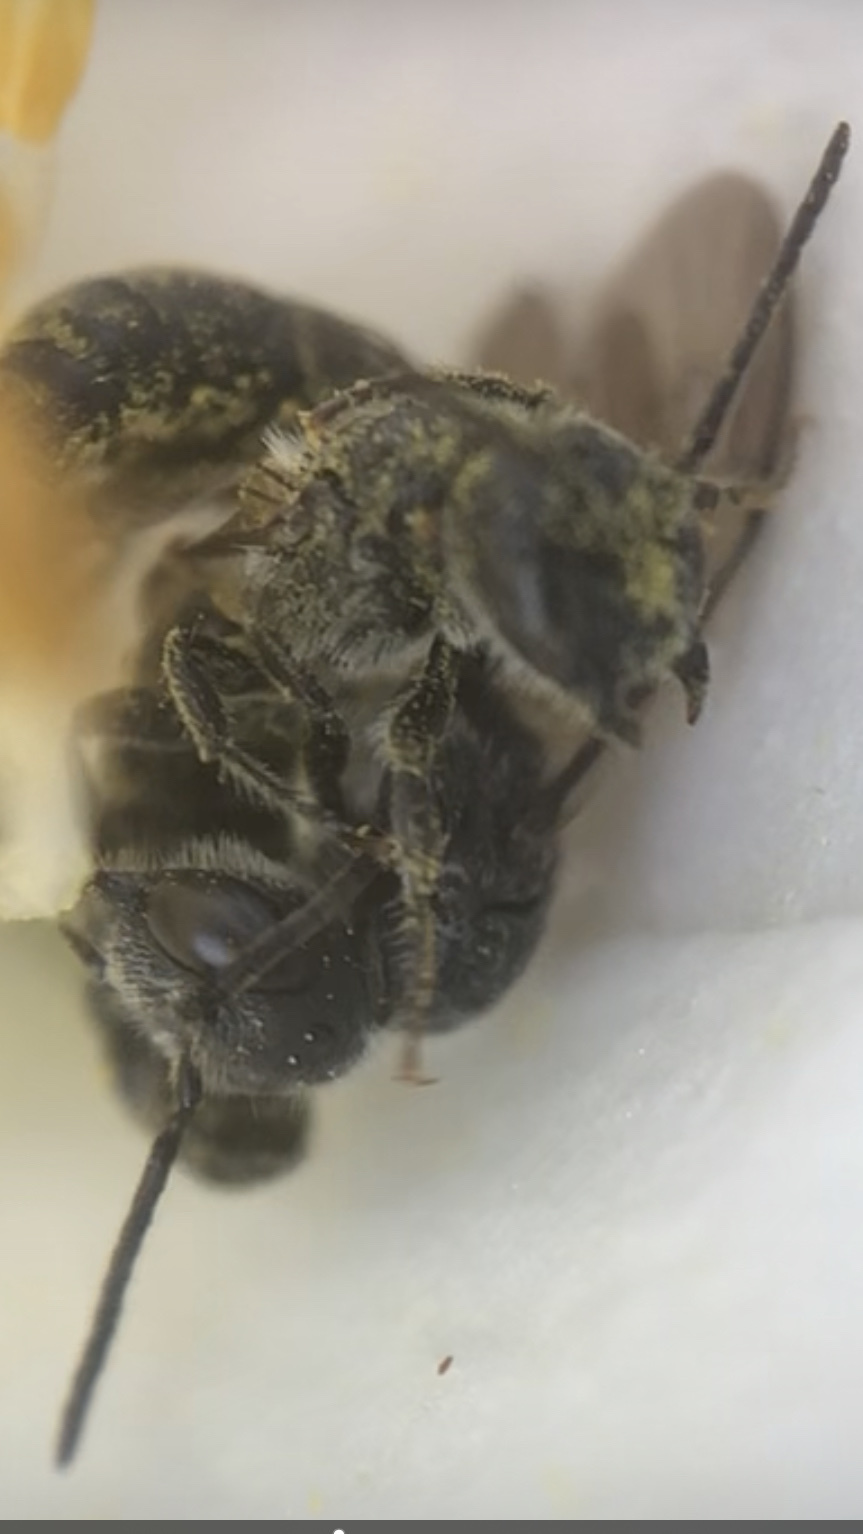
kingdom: Animalia
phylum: Arthropoda
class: Insecta
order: Hymenoptera
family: Megachilidae
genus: Chelostoma
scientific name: Chelostoma philadelphi
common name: Mock-orange scissor bee
